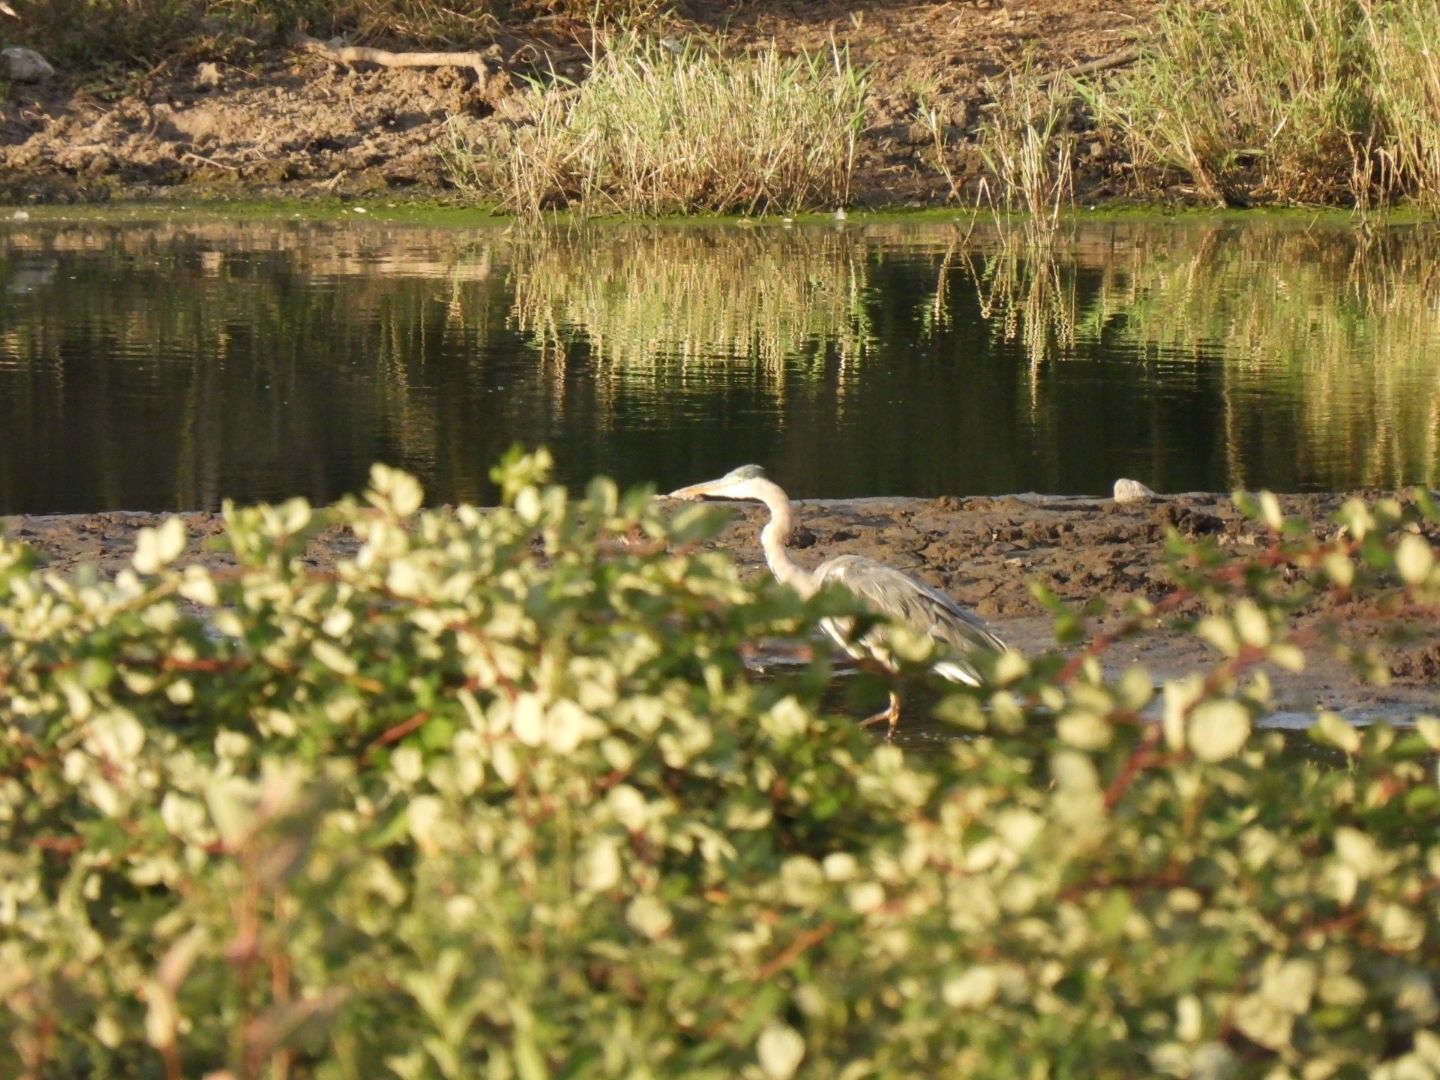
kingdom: Animalia
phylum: Chordata
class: Aves
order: Pelecaniformes
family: Ardeidae
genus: Ardea
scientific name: Ardea cinerea
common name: Grey heron
